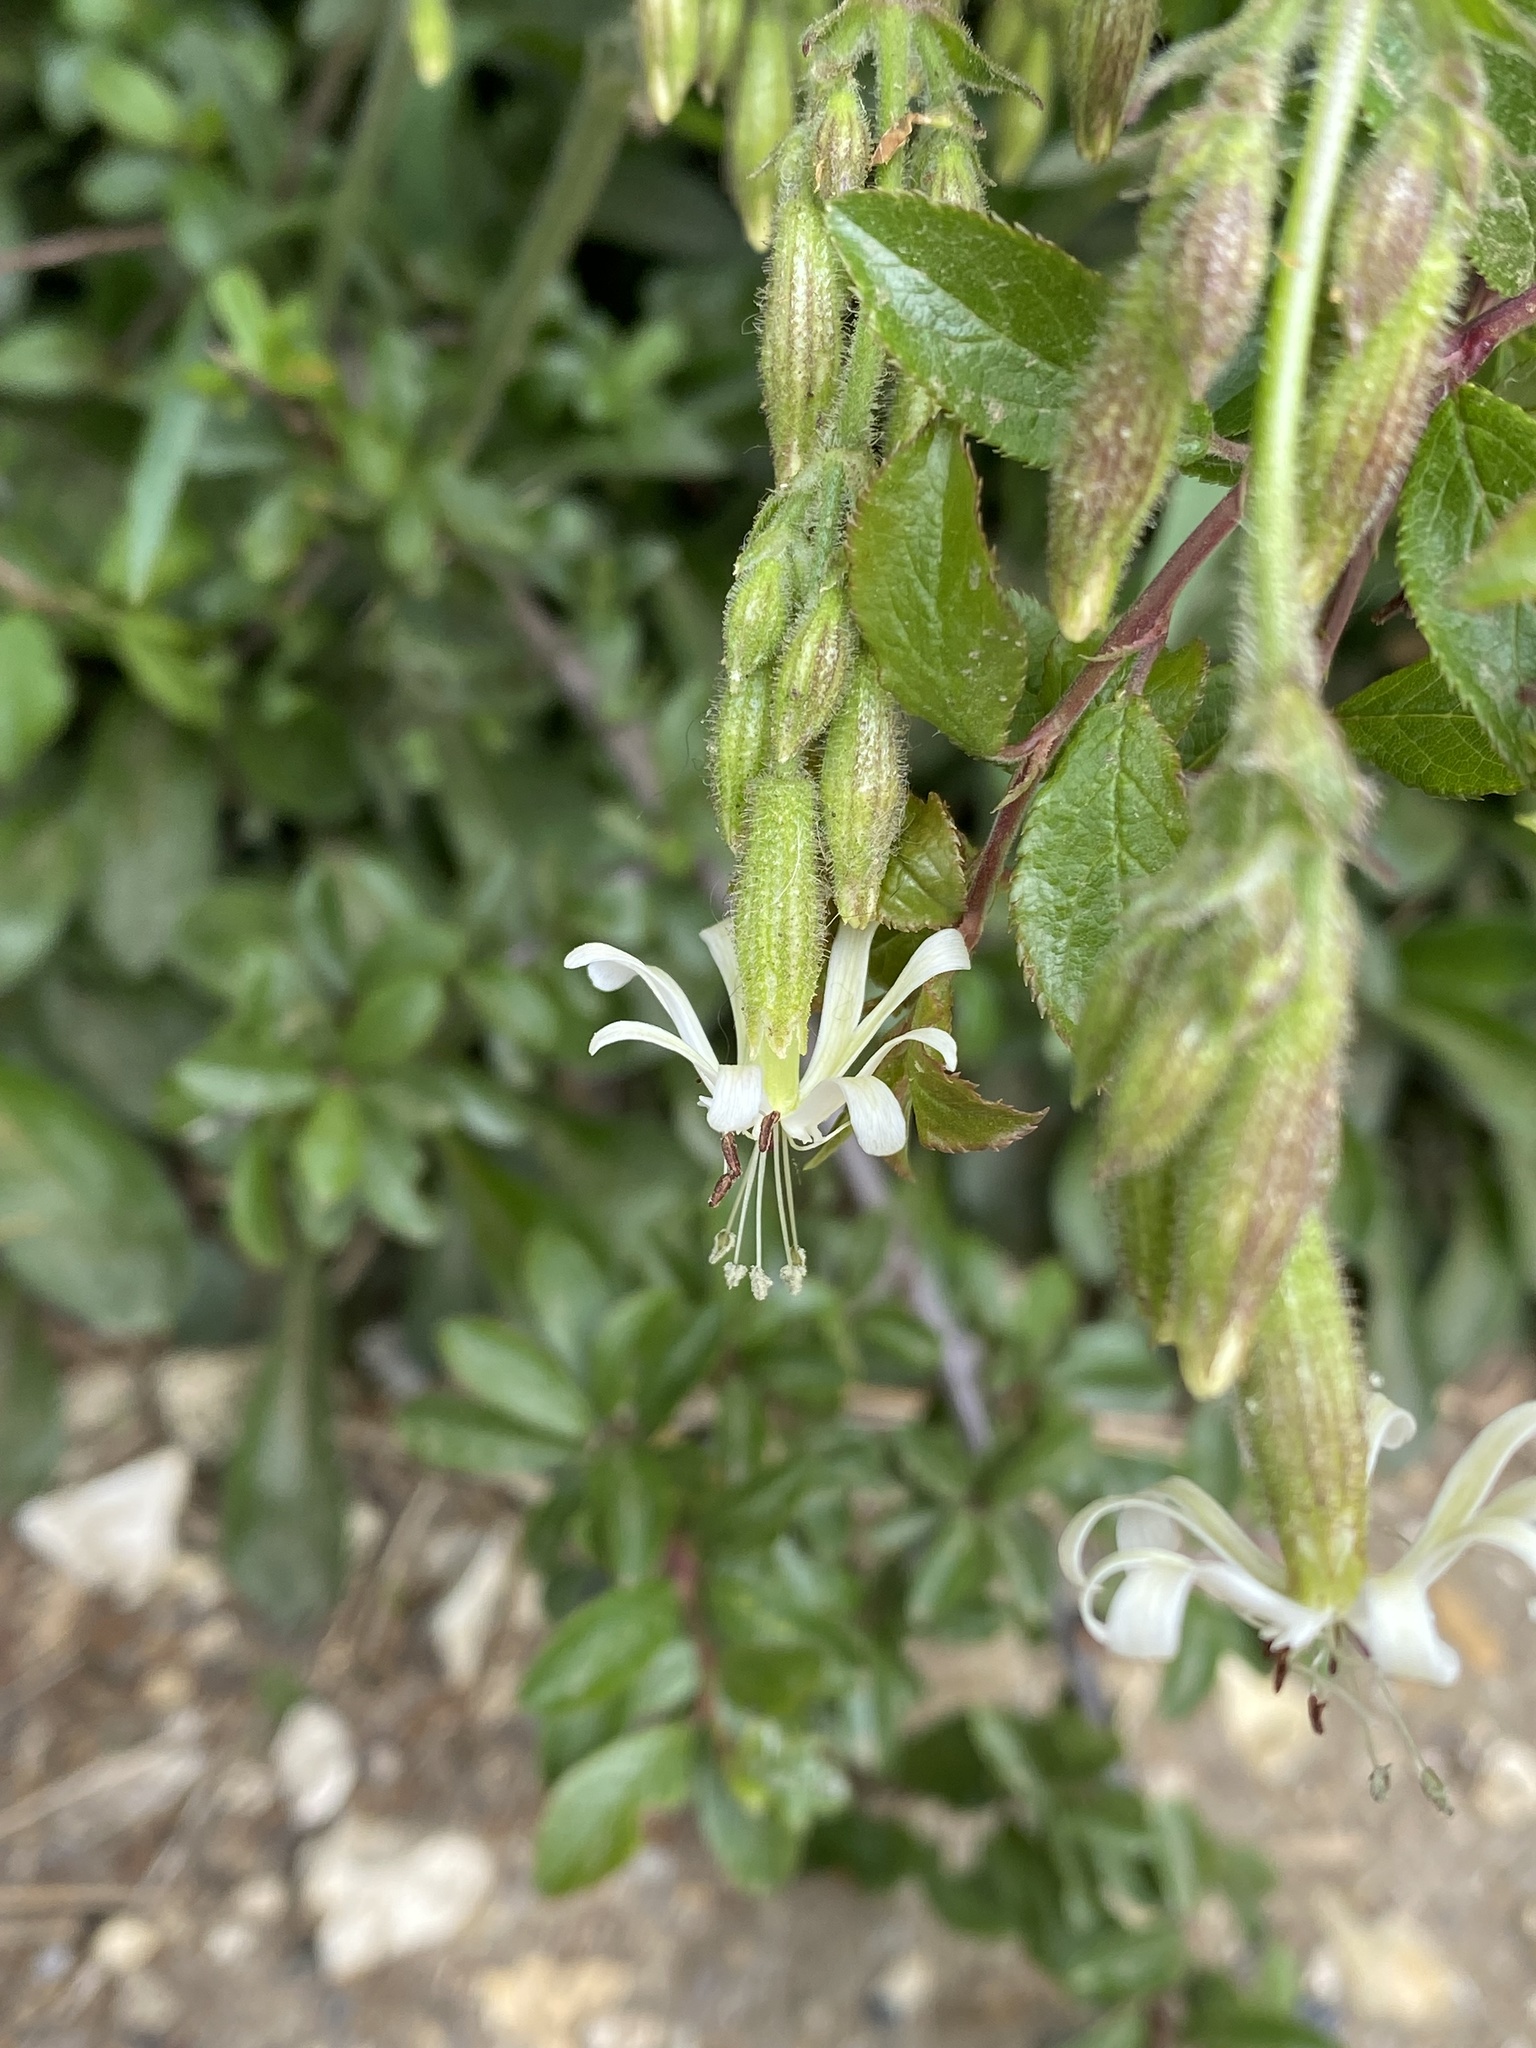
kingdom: Plantae
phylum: Tracheophyta
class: Magnoliopsida
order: Caryophyllales
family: Caryophyllaceae
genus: Silene
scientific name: Silene nutans
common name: Nottingham catchfly
